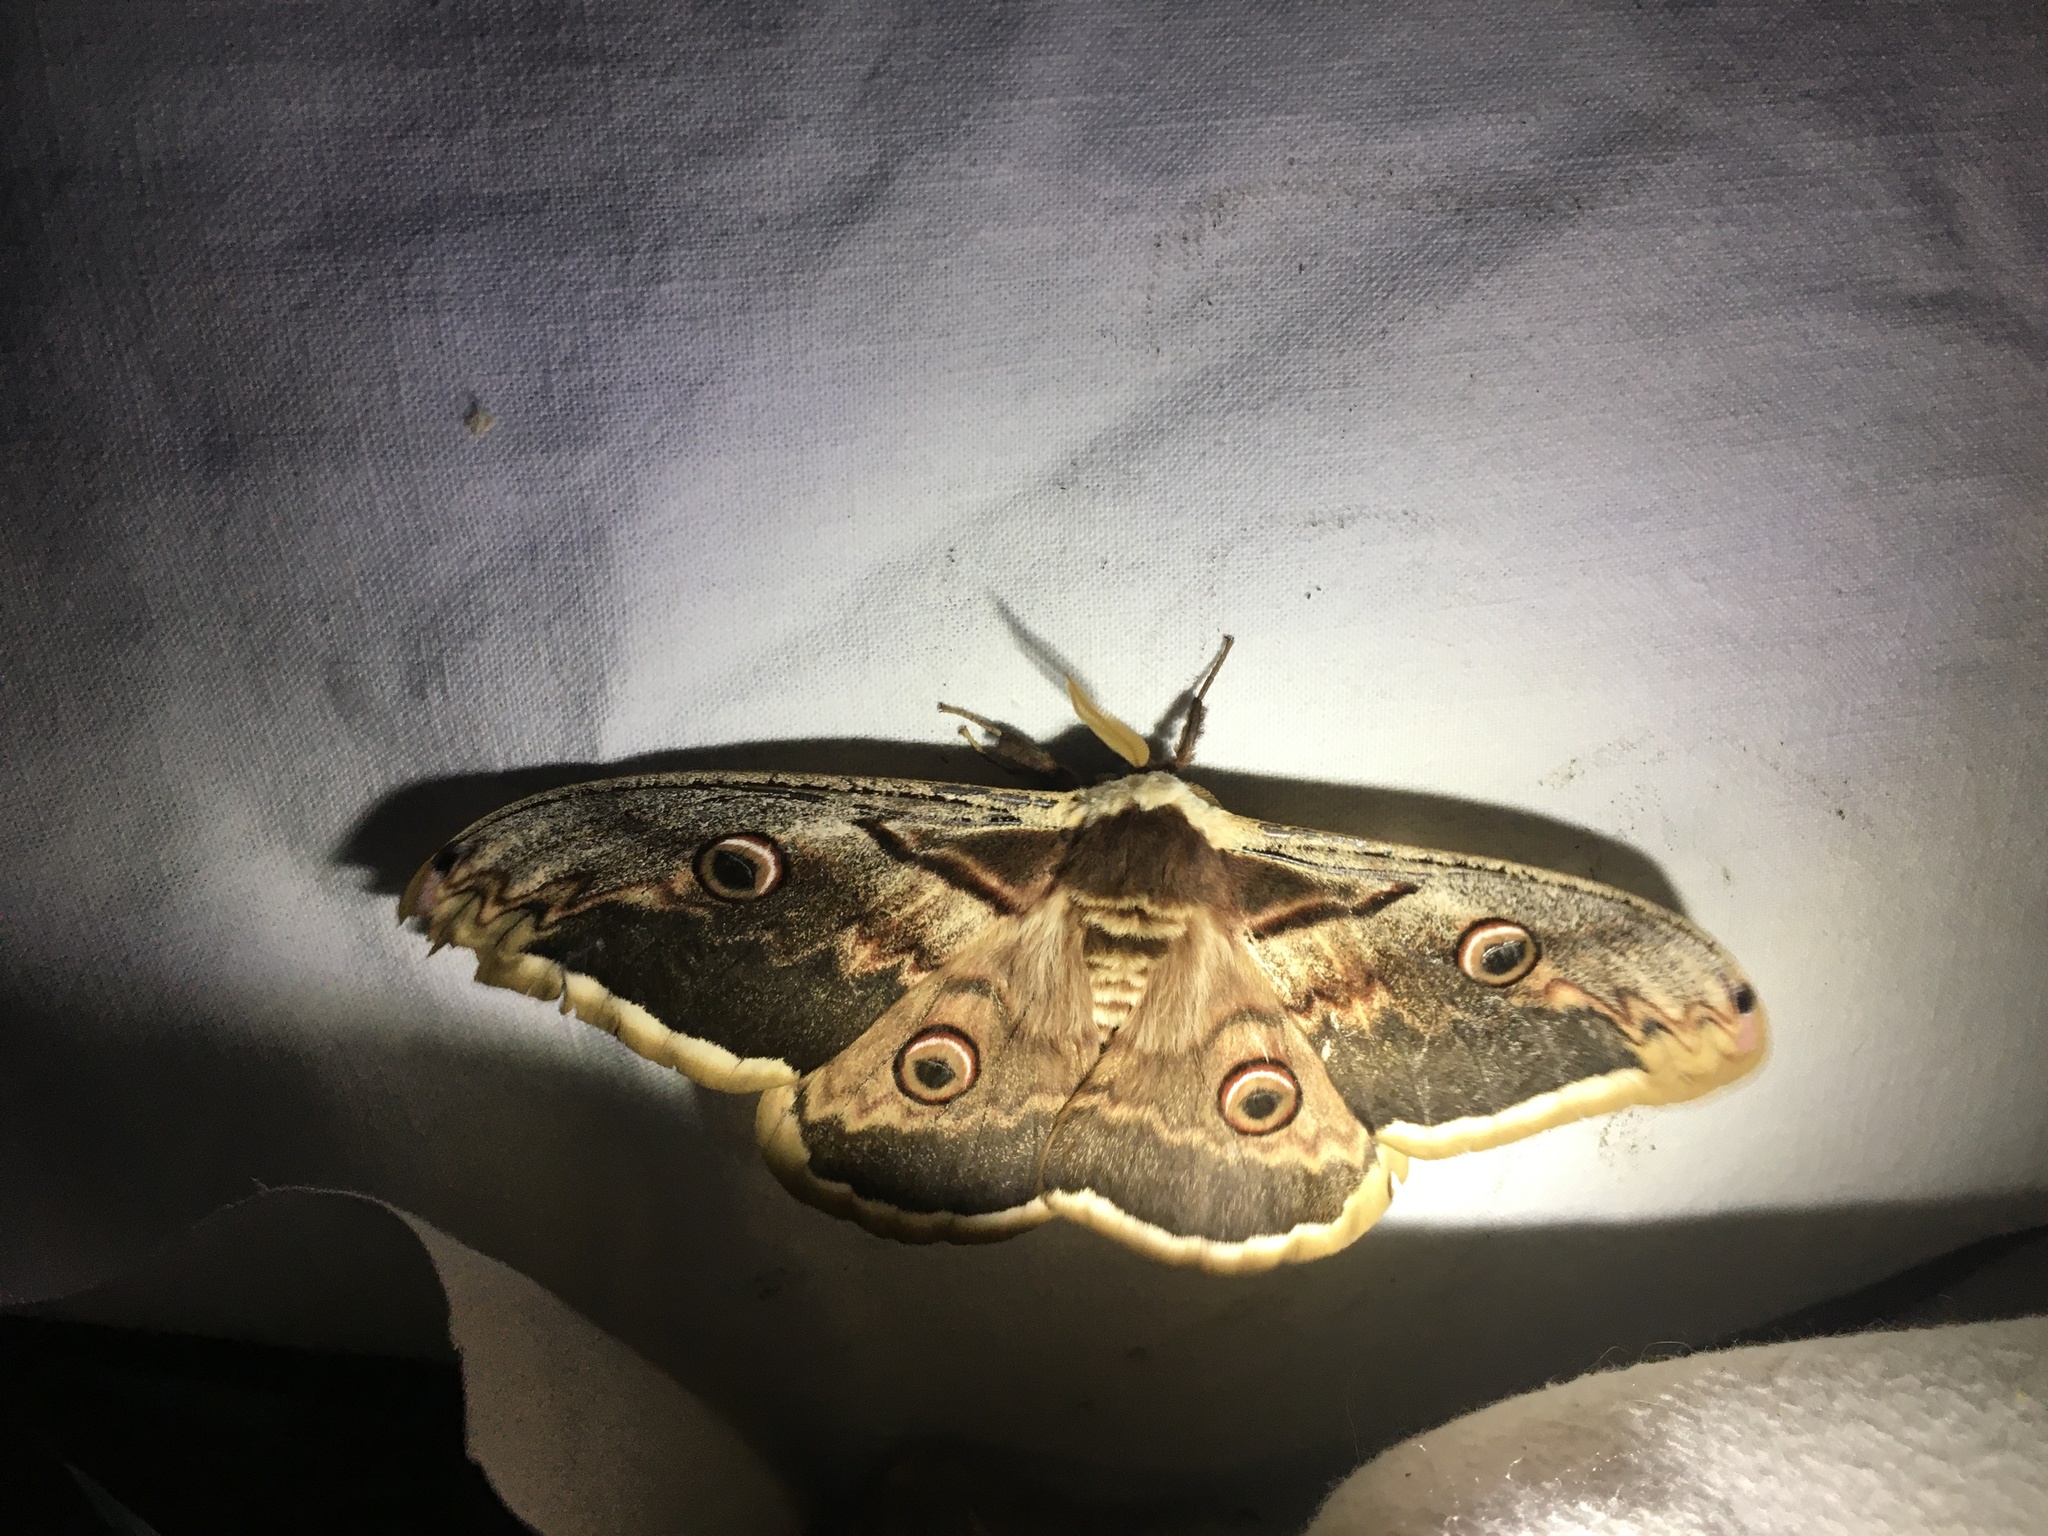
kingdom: Animalia
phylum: Arthropoda
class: Insecta
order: Lepidoptera
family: Saturniidae
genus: Saturnia
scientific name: Saturnia pyri
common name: Great peacock moth
